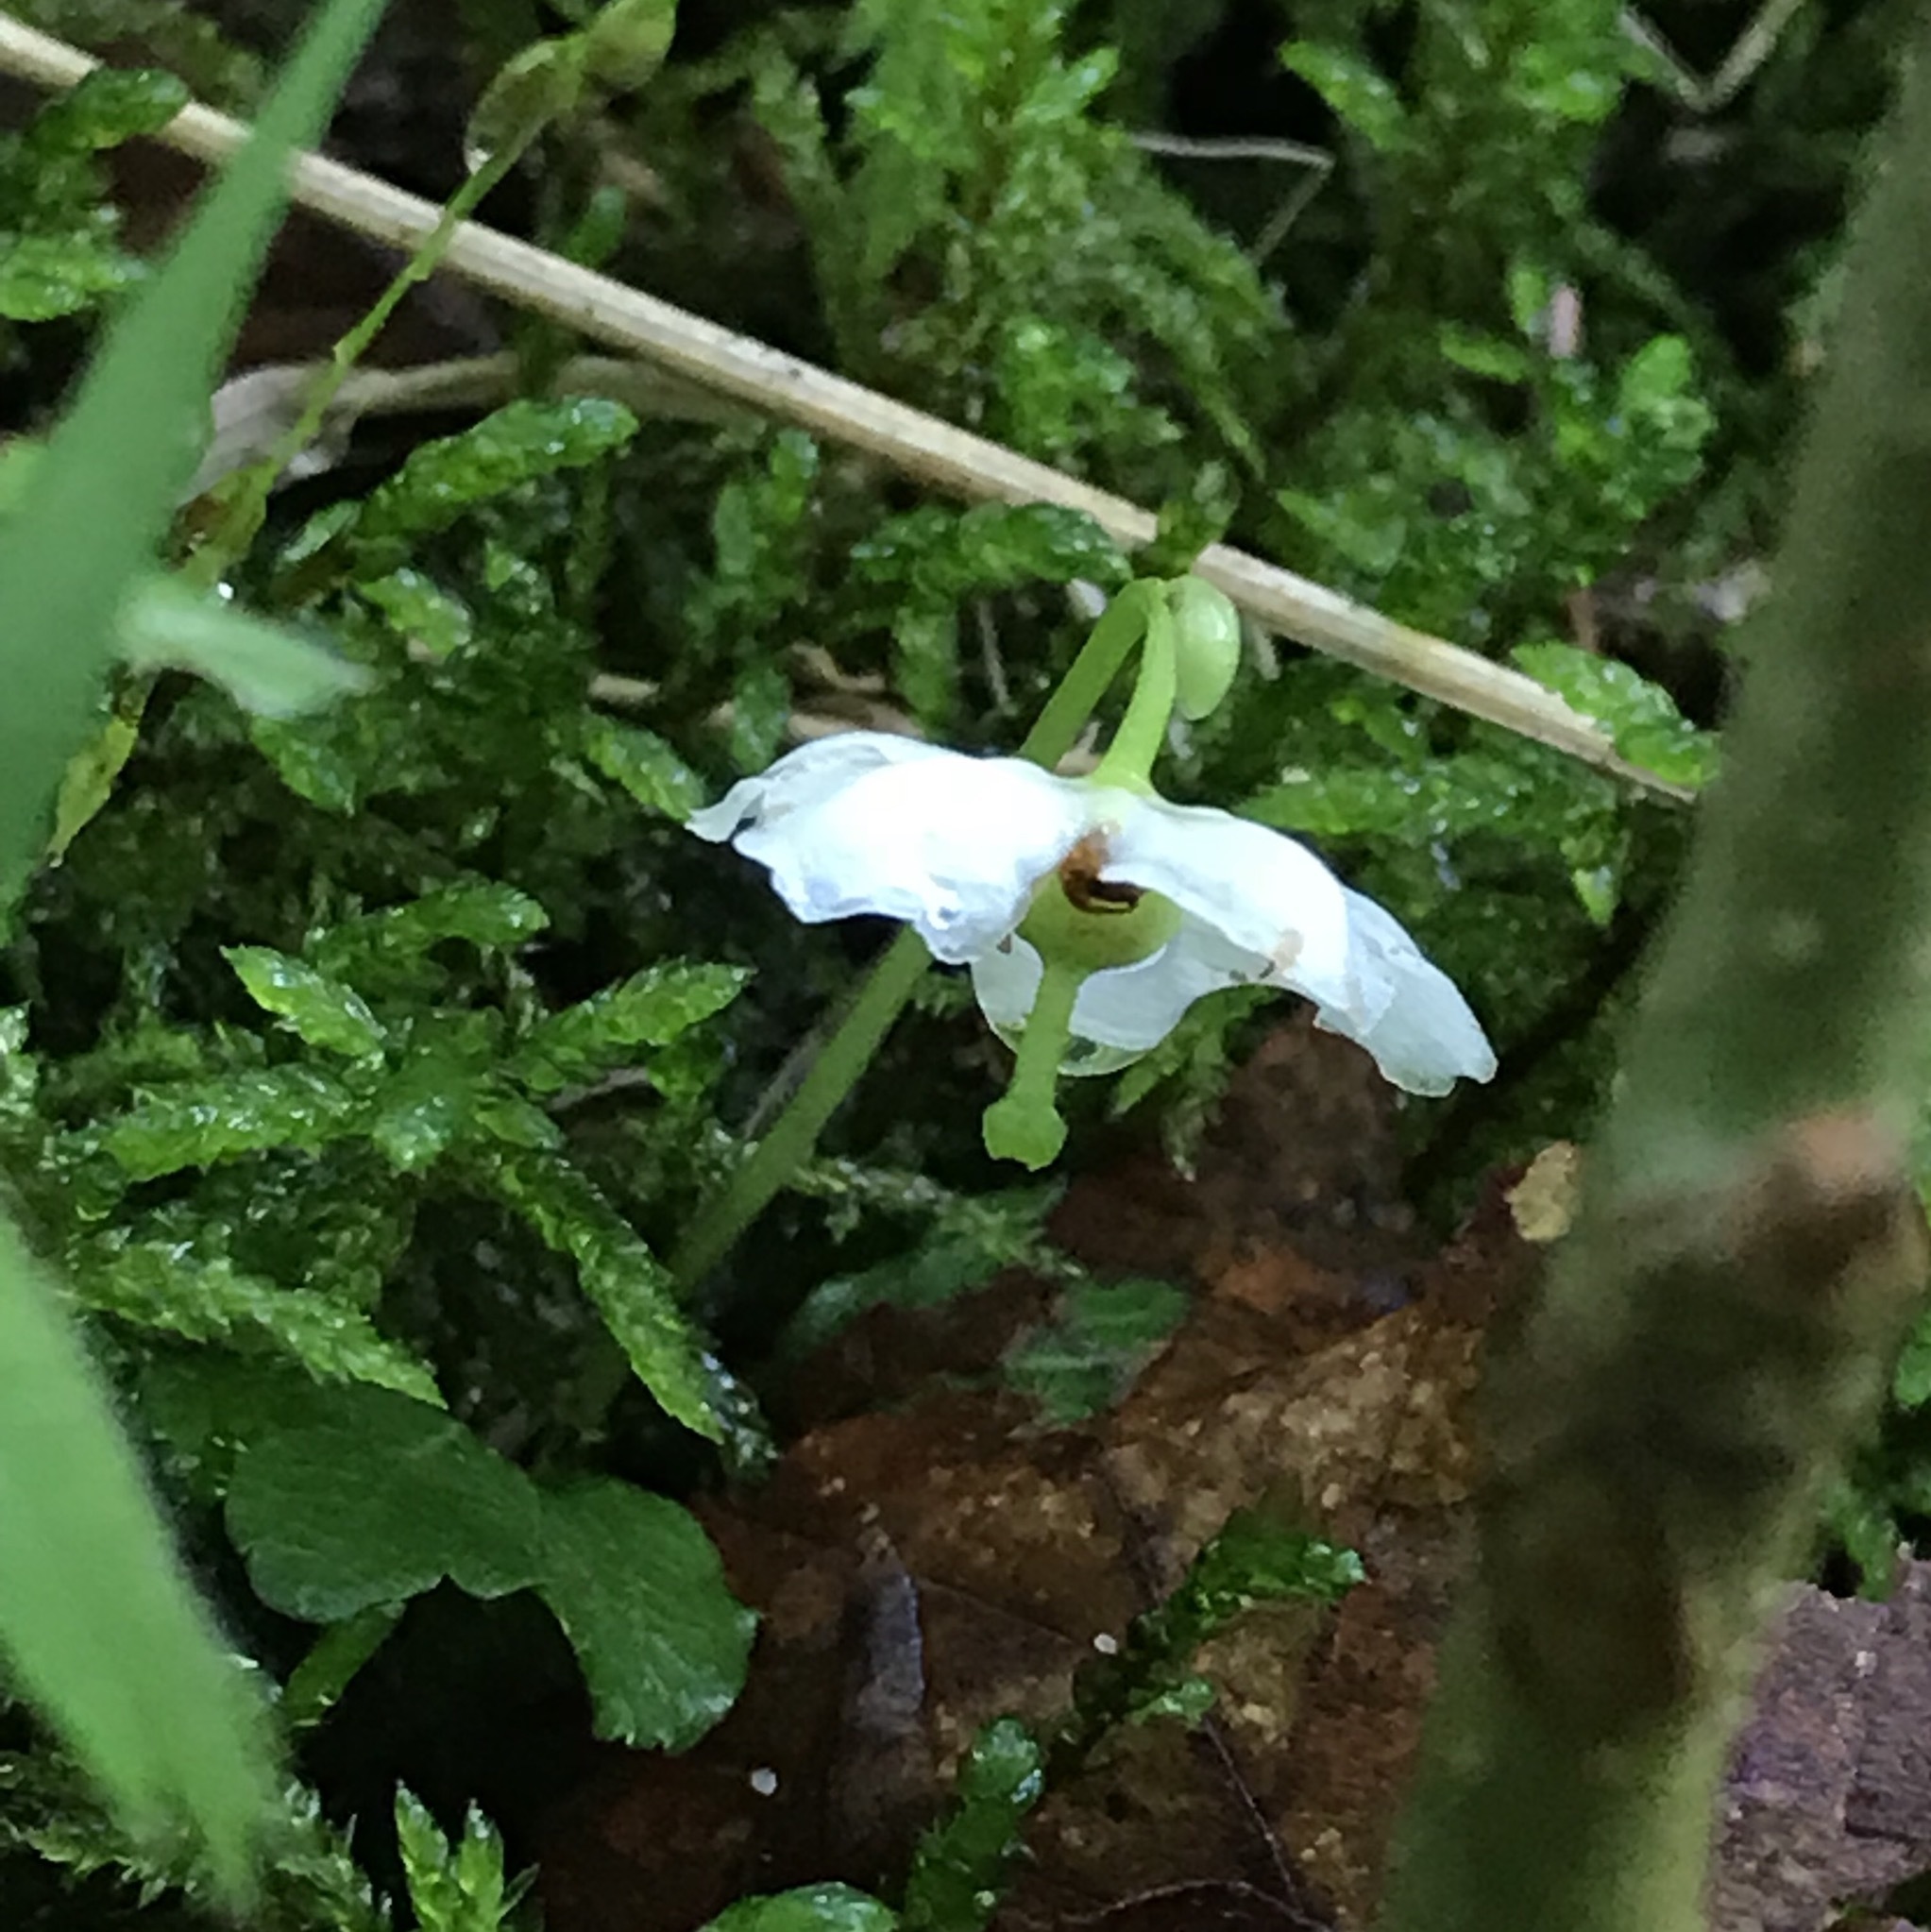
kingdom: Plantae
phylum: Tracheophyta
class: Magnoliopsida
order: Ericales
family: Ericaceae
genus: Moneses
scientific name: Moneses uniflora
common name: One-flowered wintergreen
